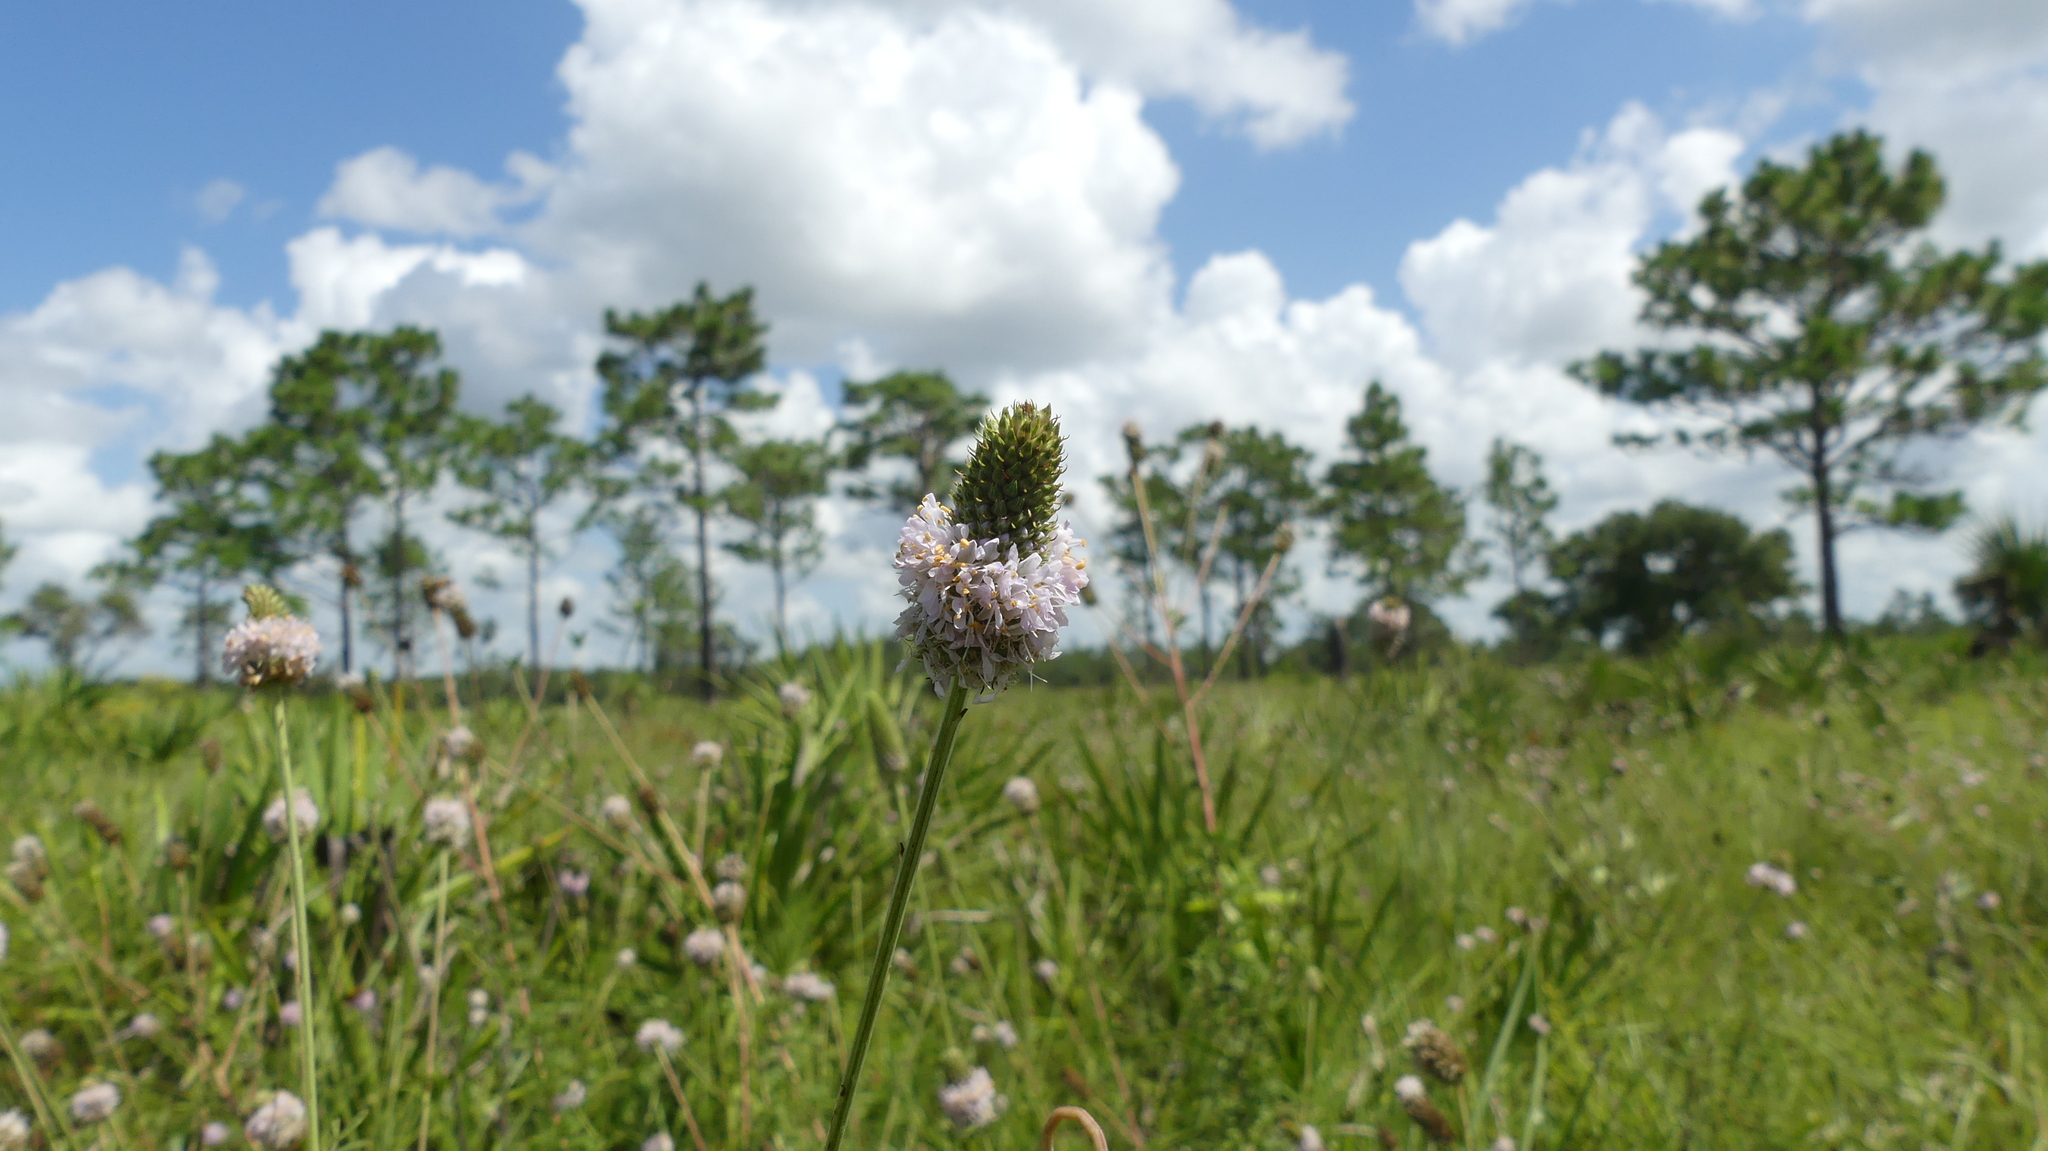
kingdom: Plantae
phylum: Tracheophyta
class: Magnoliopsida
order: Fabales
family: Fabaceae
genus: Dalea
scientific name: Dalea carnea
